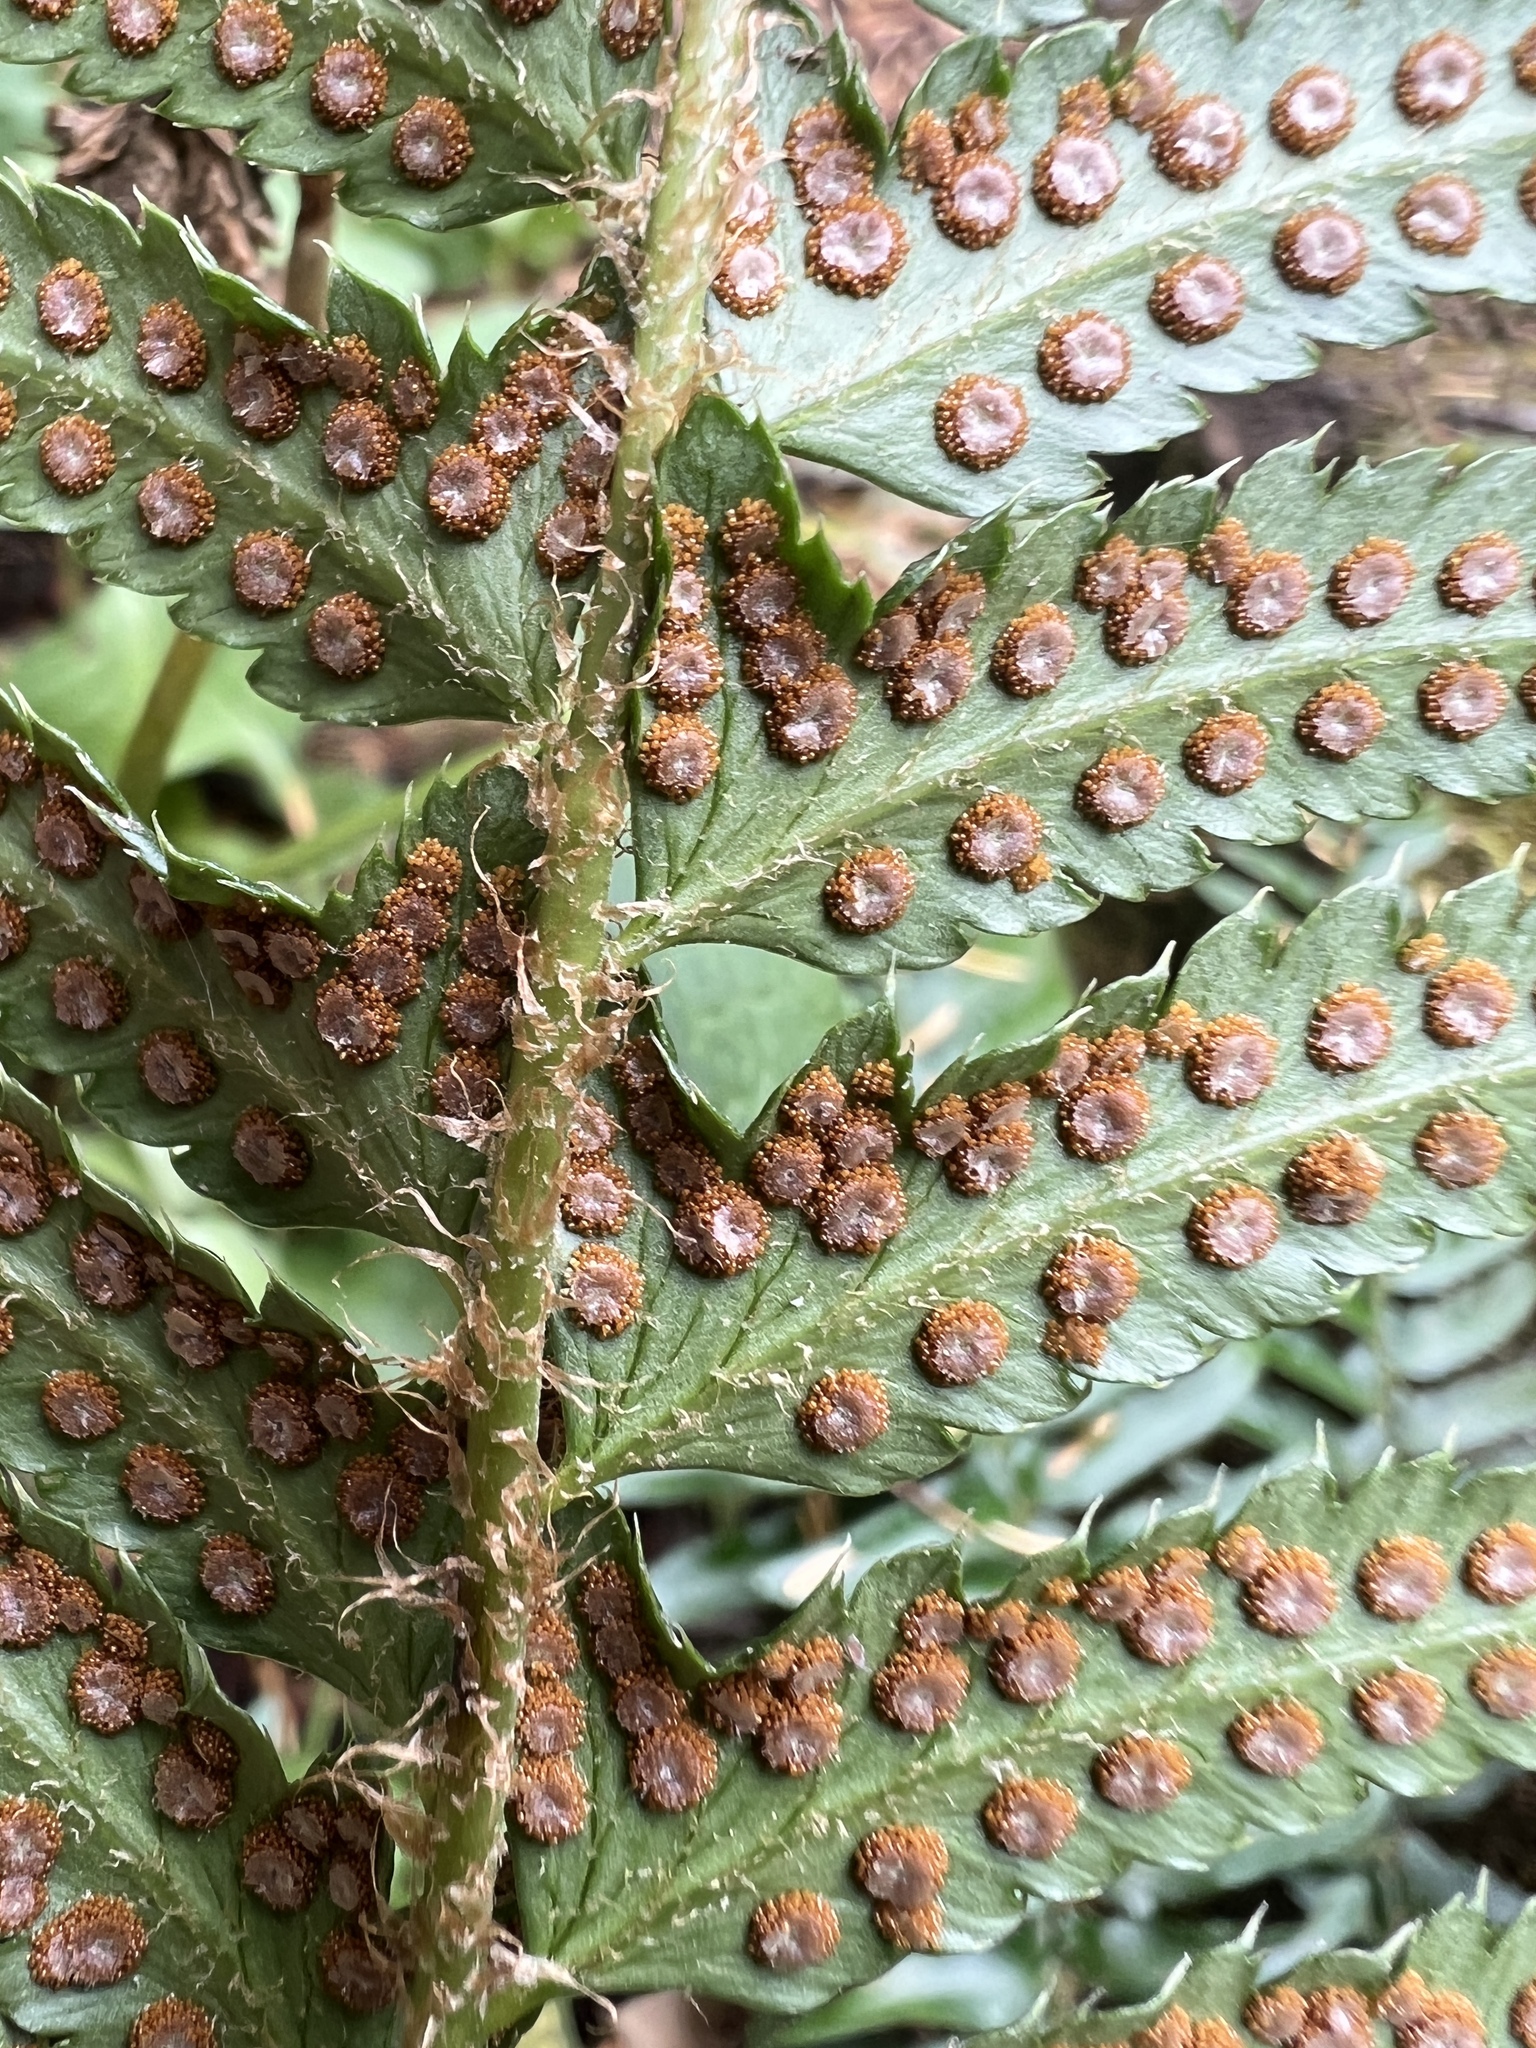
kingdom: Plantae
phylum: Tracheophyta
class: Polypodiopsida
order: Polypodiales
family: Dryopteridaceae
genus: Polystichum
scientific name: Polystichum munitum
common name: Western sword-fern
